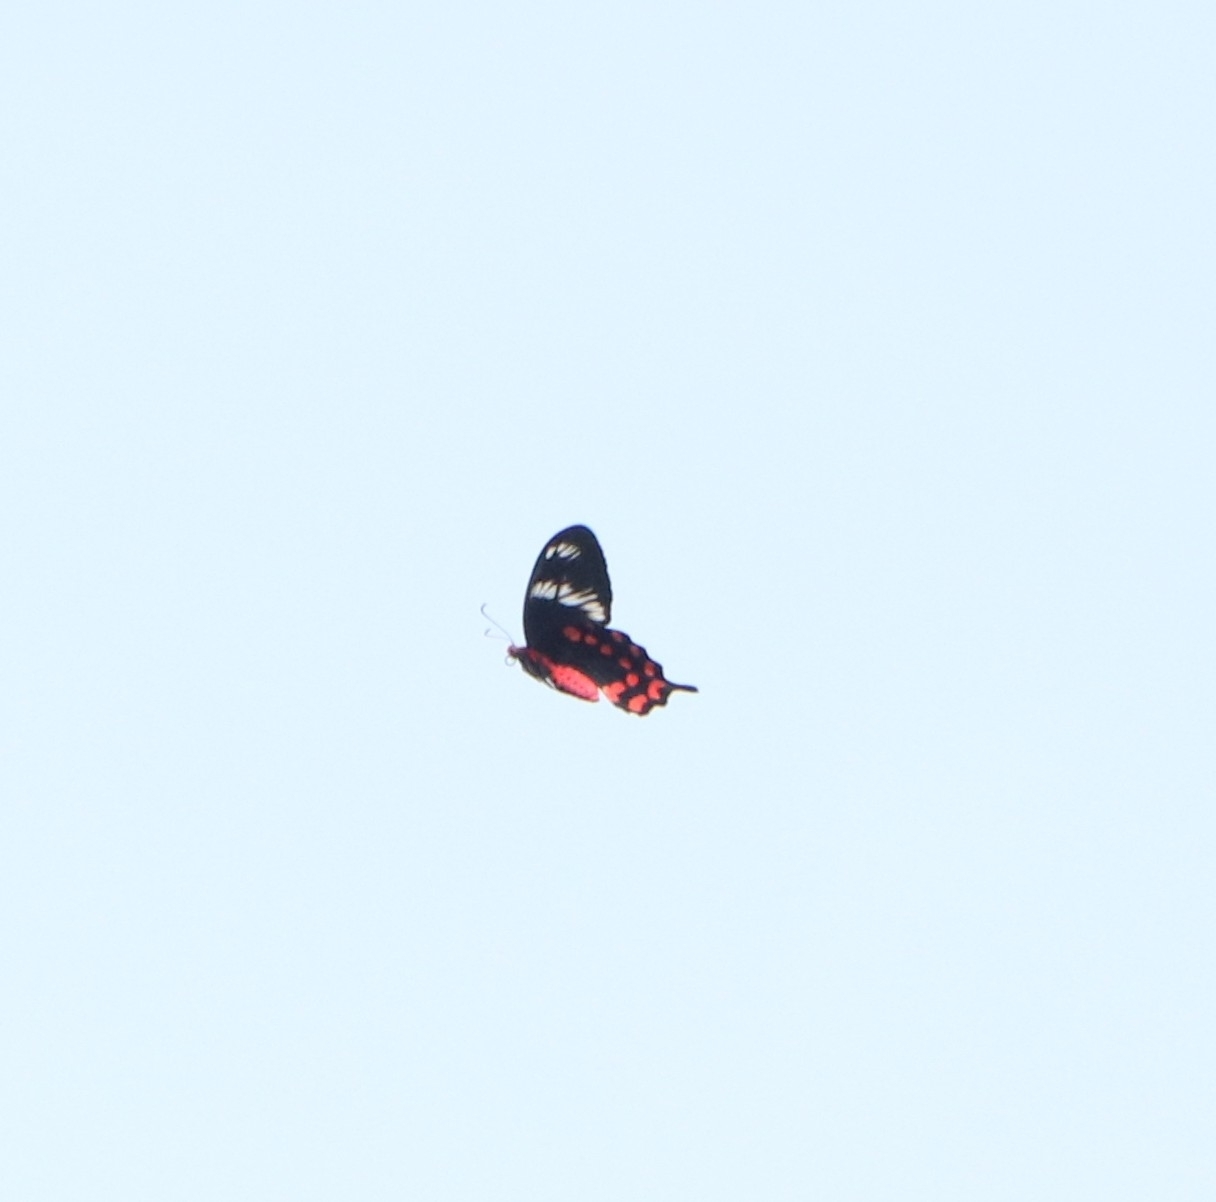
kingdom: Animalia
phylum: Arthropoda
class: Insecta
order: Lepidoptera
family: Papilionidae
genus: Pachliopta
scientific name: Pachliopta hector
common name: Crimson rose
